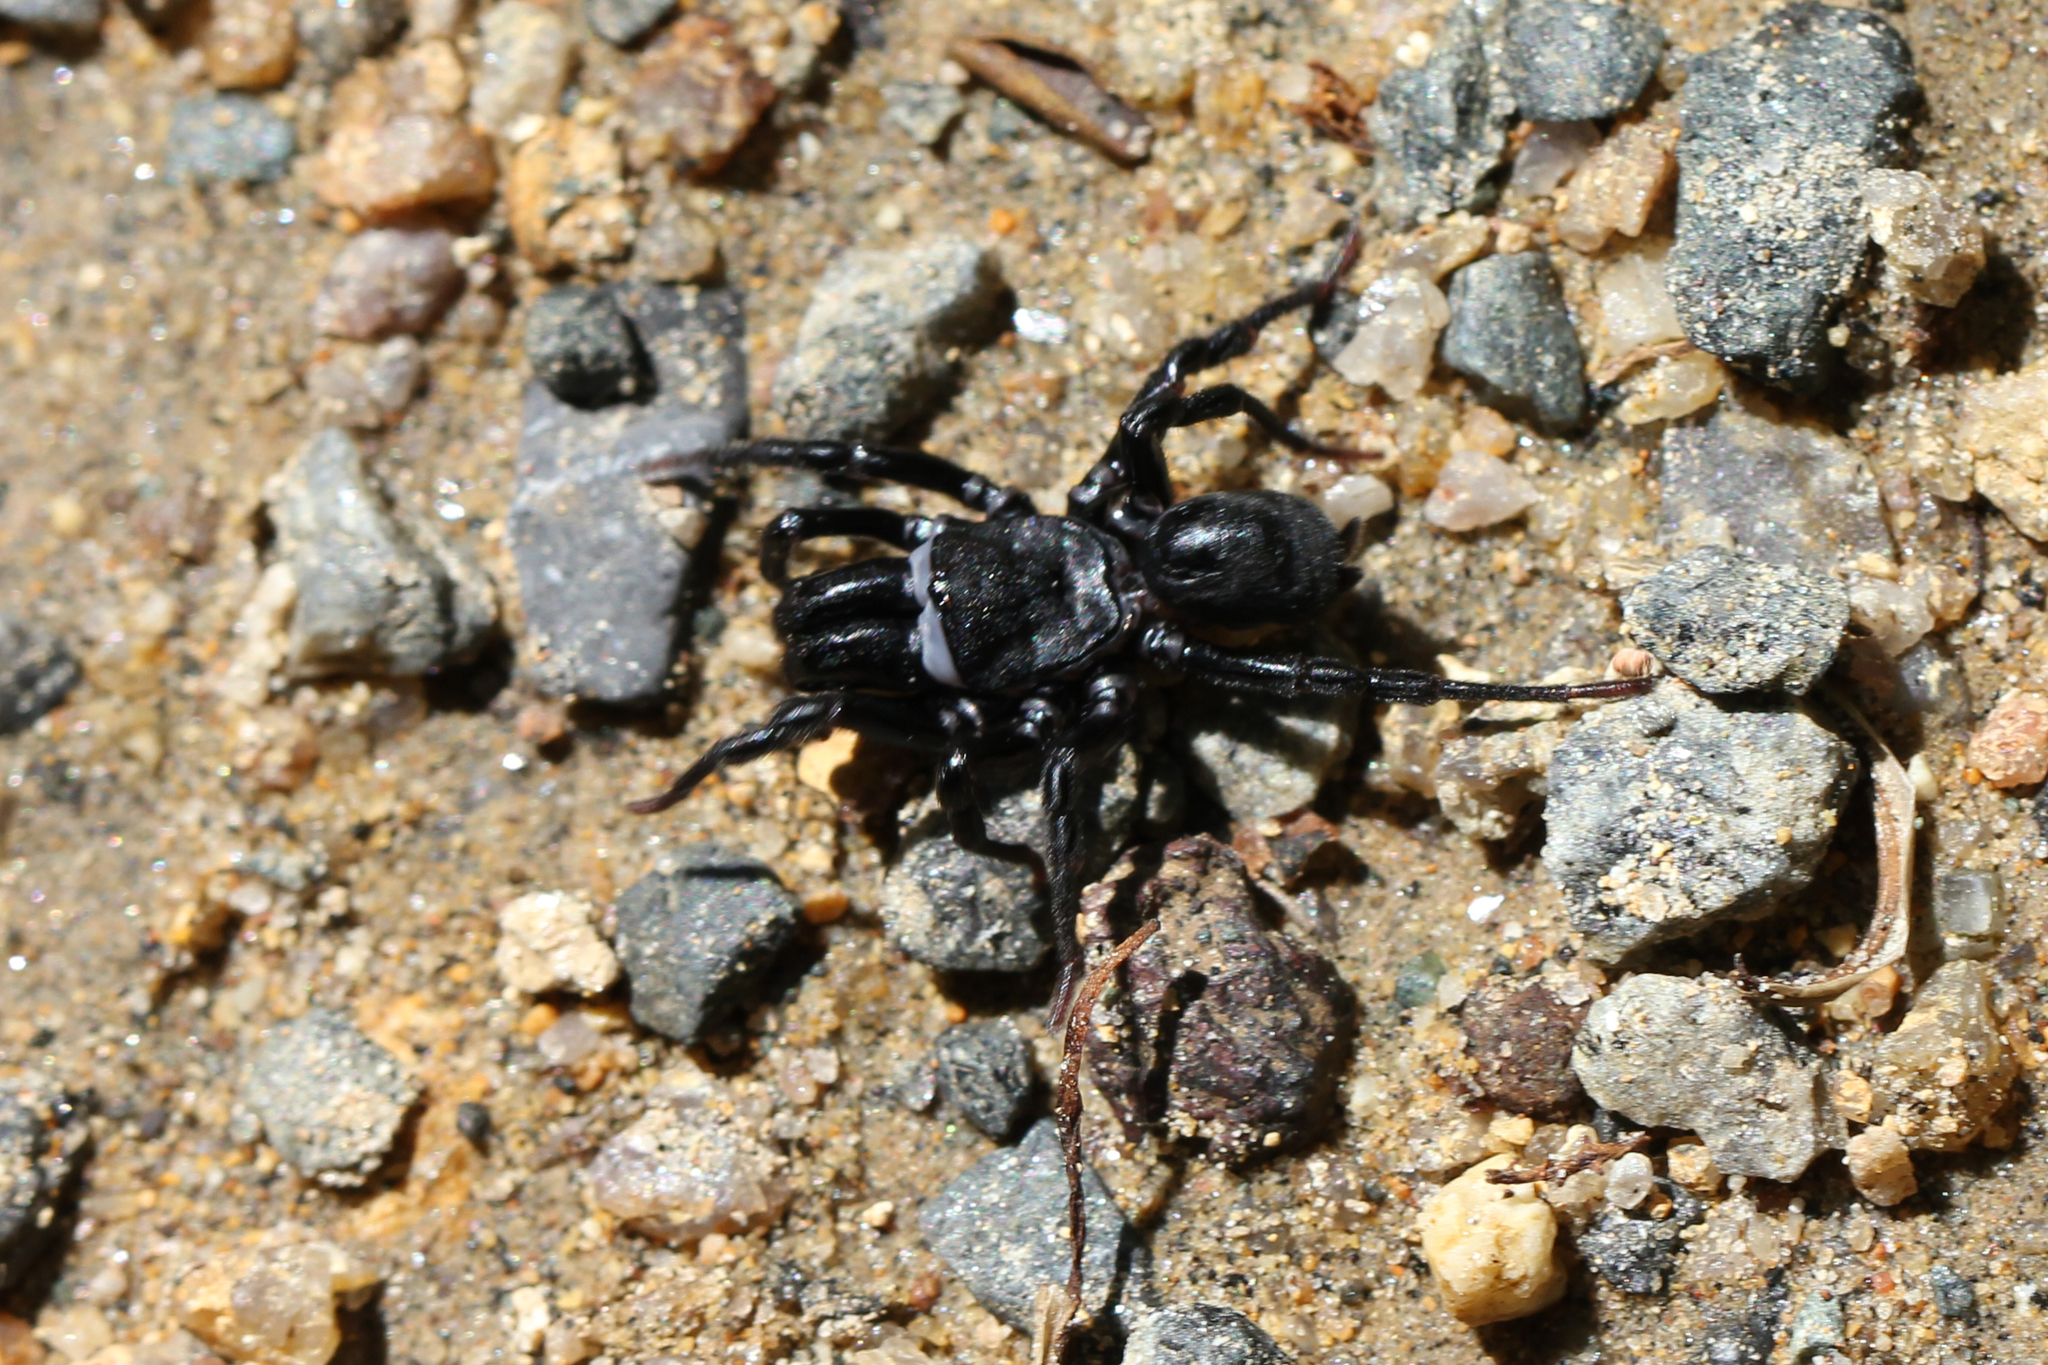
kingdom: Animalia
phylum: Arthropoda
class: Arachnida
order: Araneae
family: Atypidae
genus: Sphodros
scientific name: Sphodros niger
